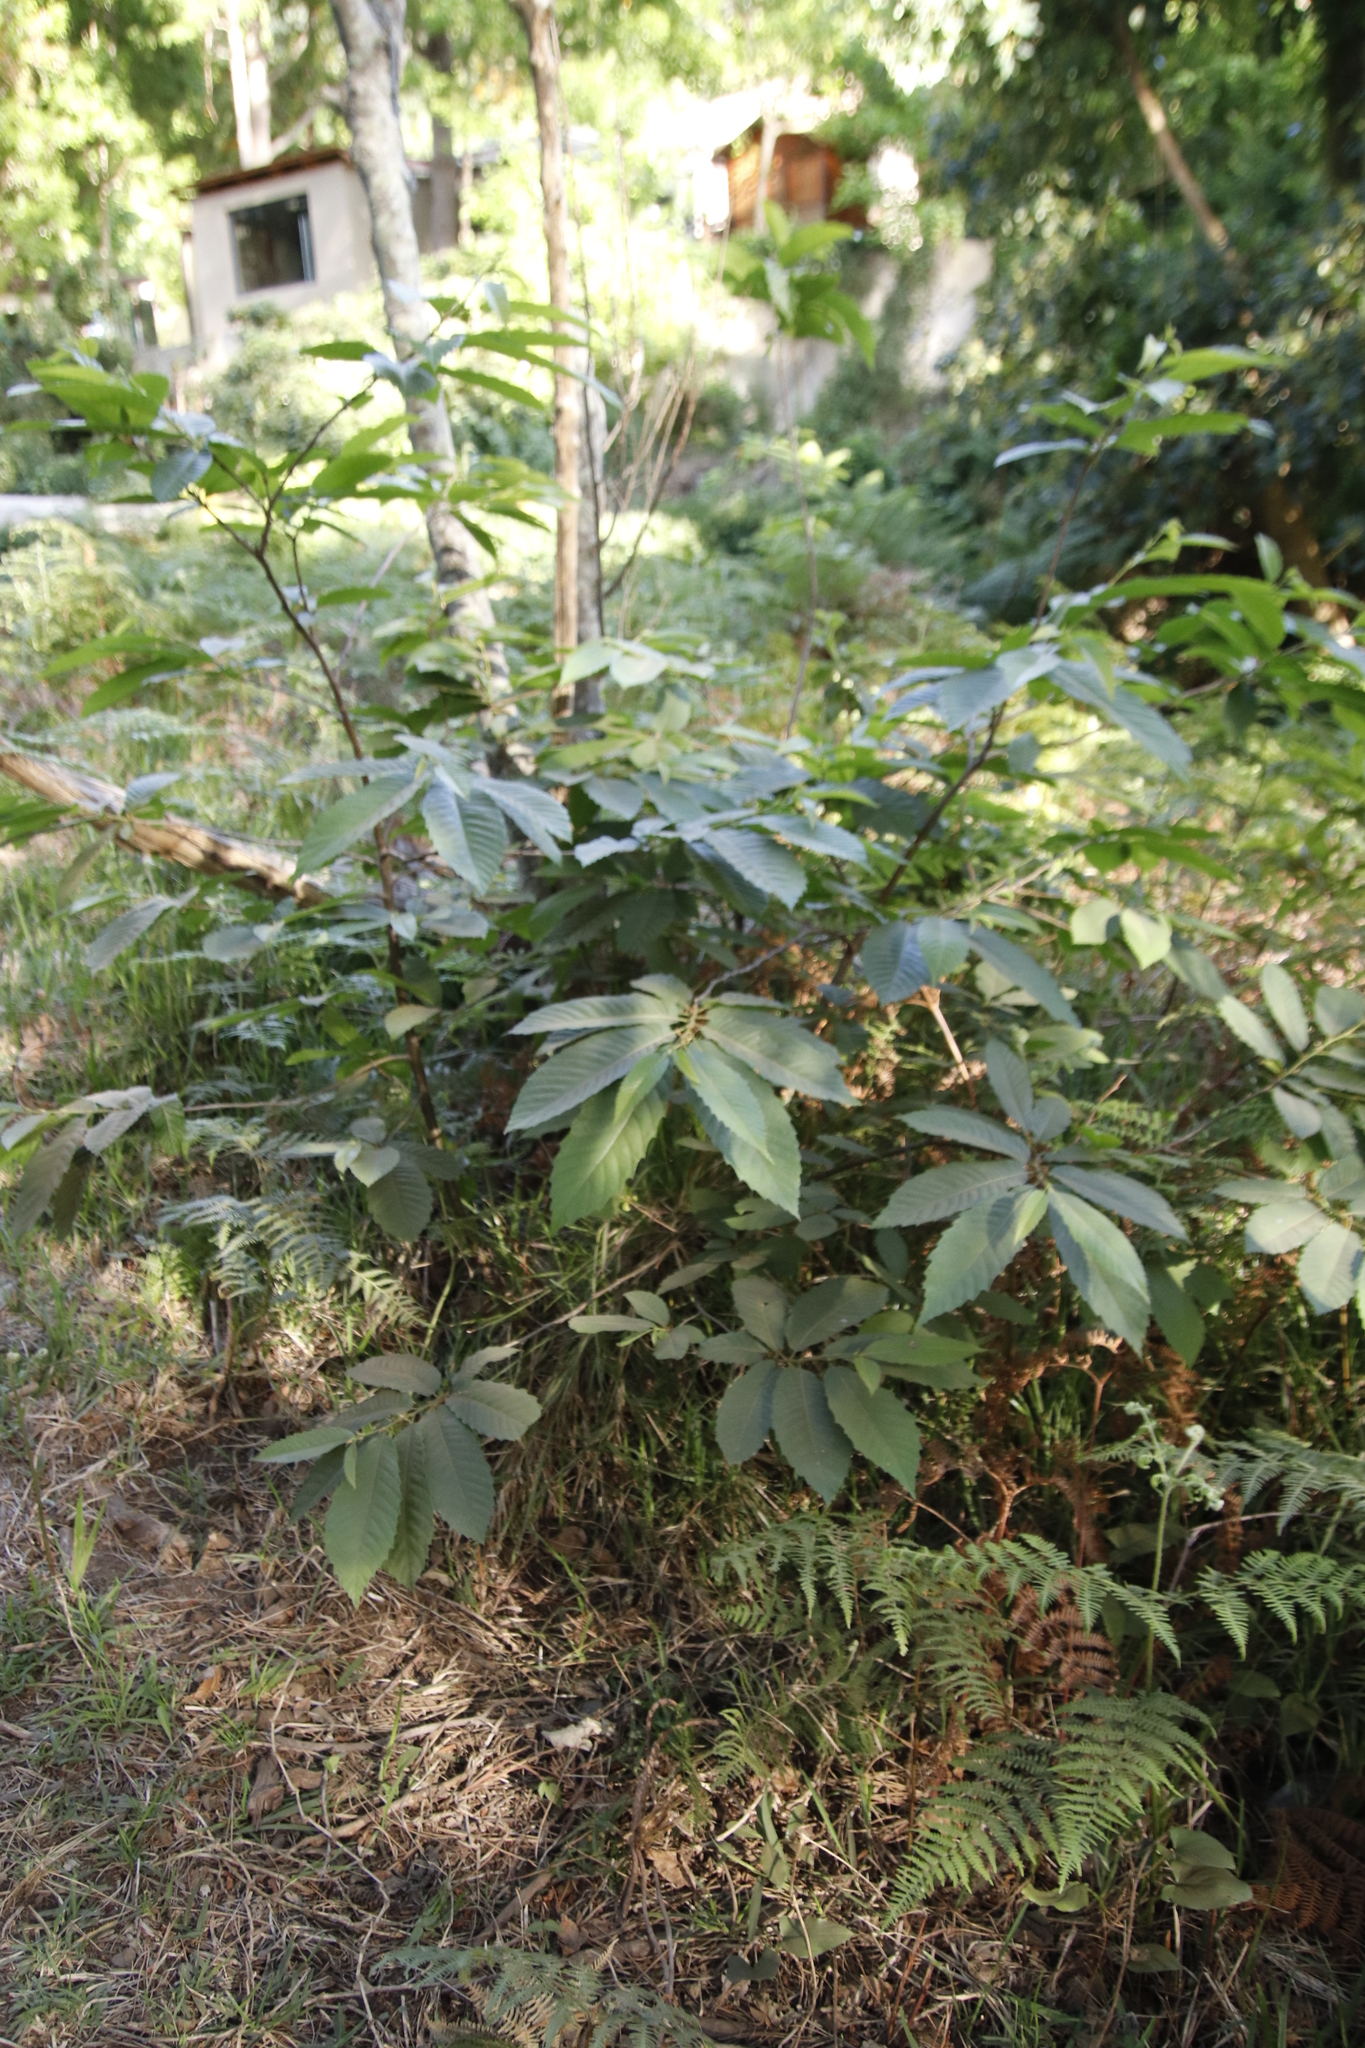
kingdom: Plantae
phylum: Tracheophyta
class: Magnoliopsida
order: Fagales
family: Fagaceae
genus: Castanea
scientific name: Castanea sativa
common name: Sweet chestnut
